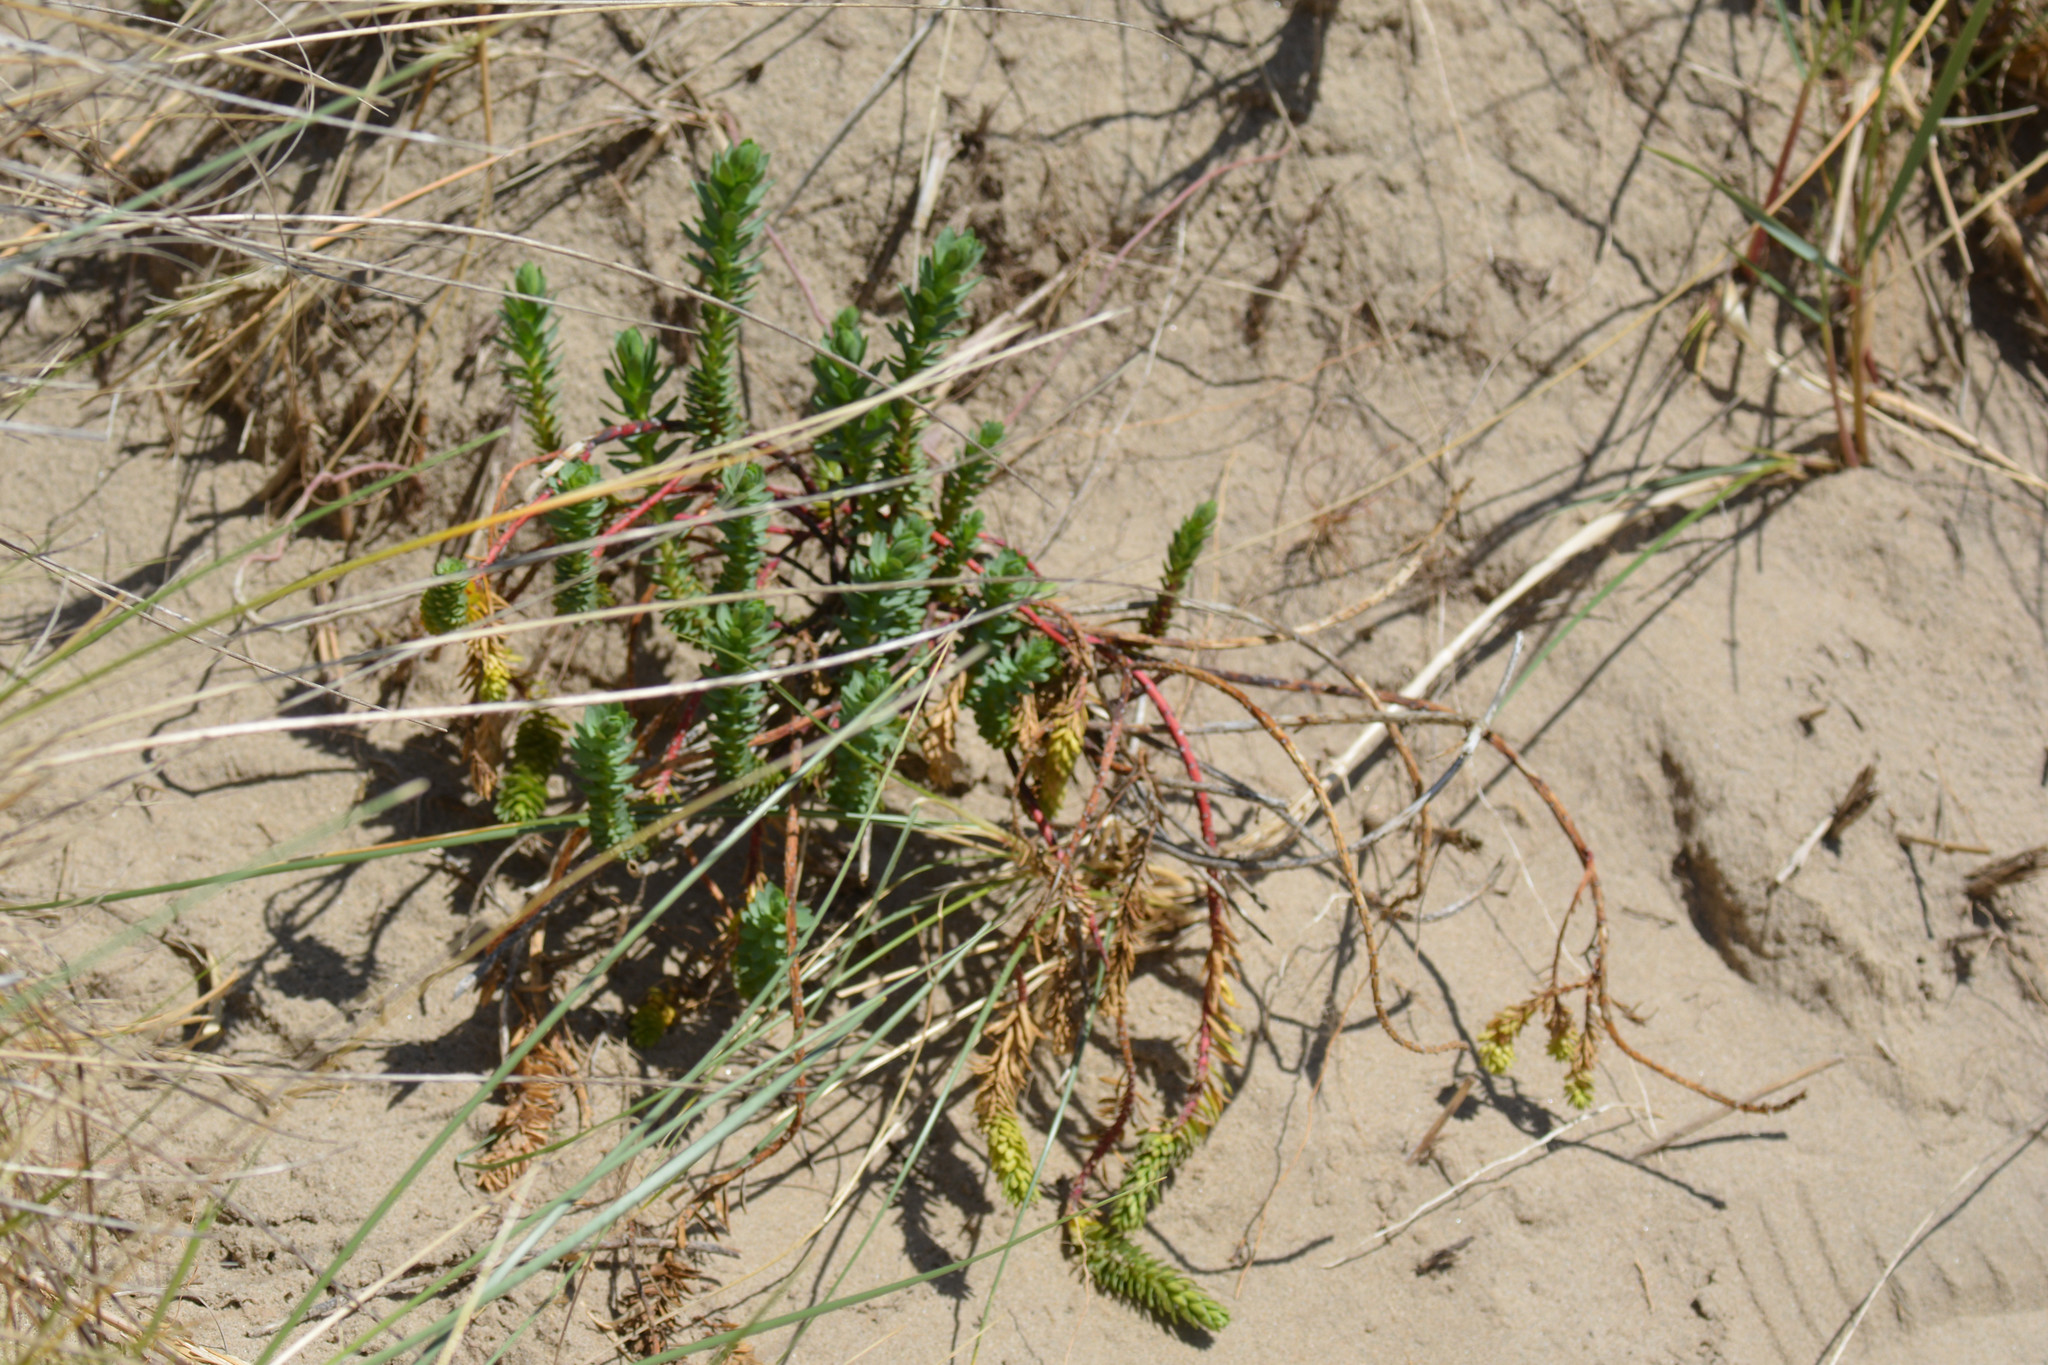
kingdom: Plantae
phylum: Tracheophyta
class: Magnoliopsida
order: Malpighiales
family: Euphorbiaceae
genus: Euphorbia
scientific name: Euphorbia paralias
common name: Sea spurge
